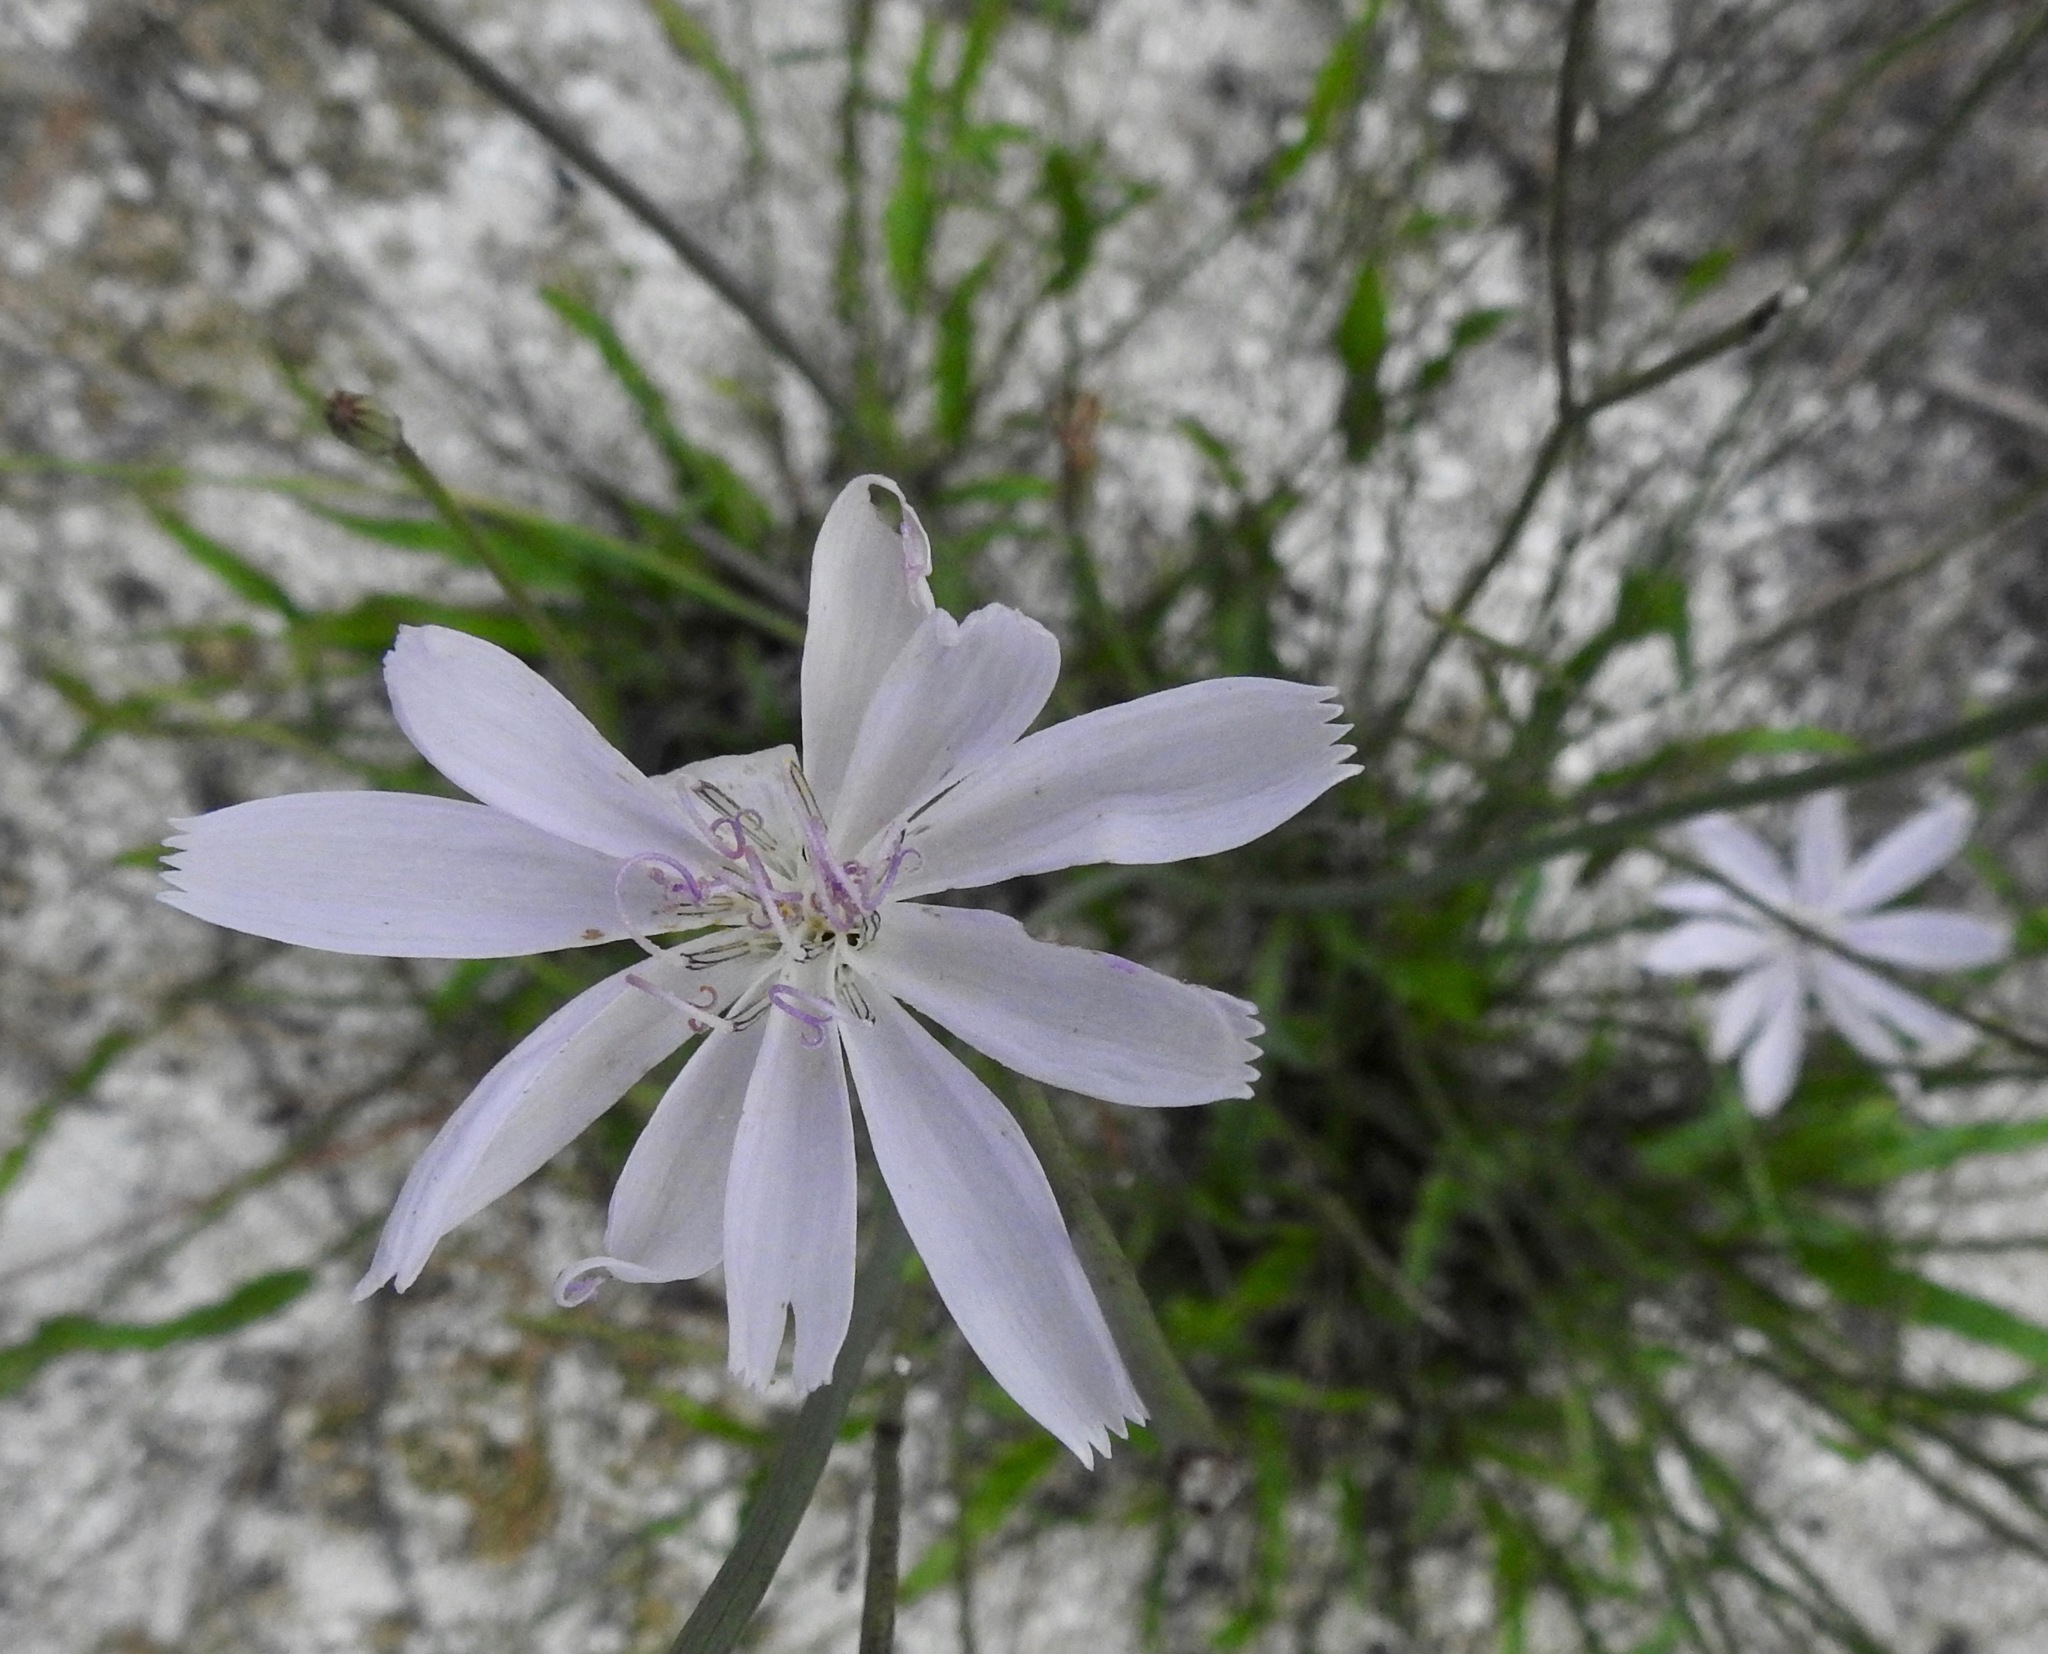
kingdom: Plantae
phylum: Tracheophyta
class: Magnoliopsida
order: Asterales
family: Asteraceae
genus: Lygodesmia
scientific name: Lygodesmia aphylla
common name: Rose-rush
